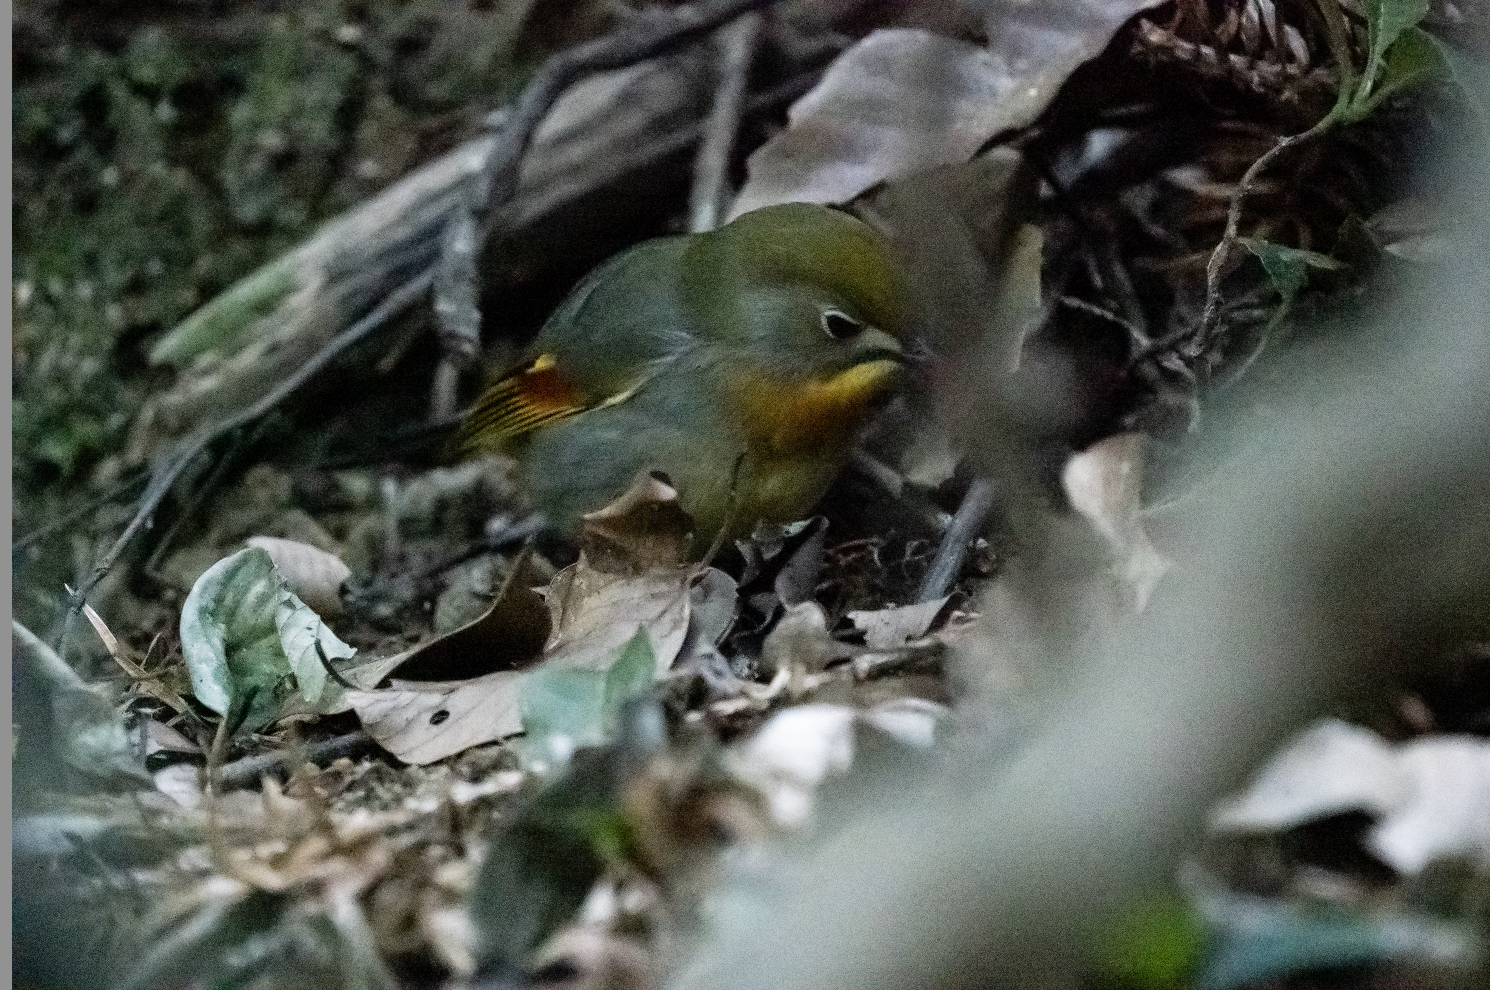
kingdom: Animalia
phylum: Chordata
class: Aves
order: Passeriformes
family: Leiothrichidae
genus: Leiothrix
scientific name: Leiothrix lutea
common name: Red-billed leiothrix
